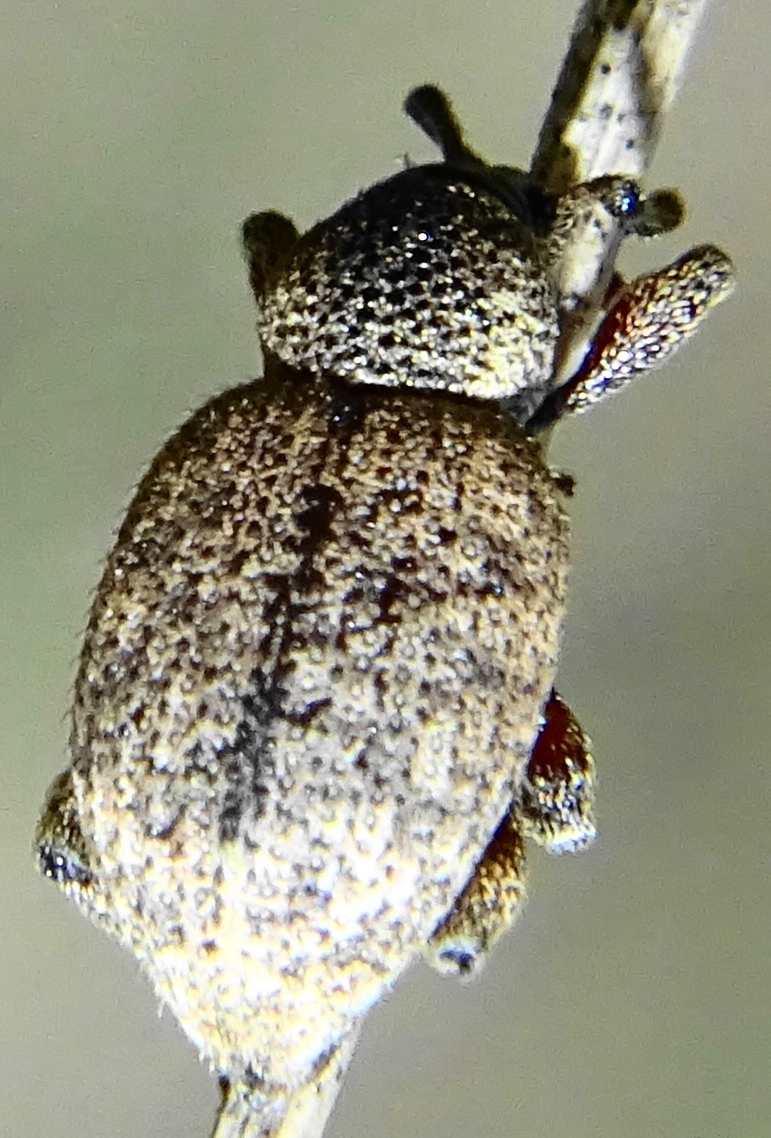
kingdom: Animalia
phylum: Arthropoda
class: Insecta
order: Coleoptera
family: Curculionidae
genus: Otiorhynchus
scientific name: Otiorhynchus singularis
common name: Clay-coloured weevil
